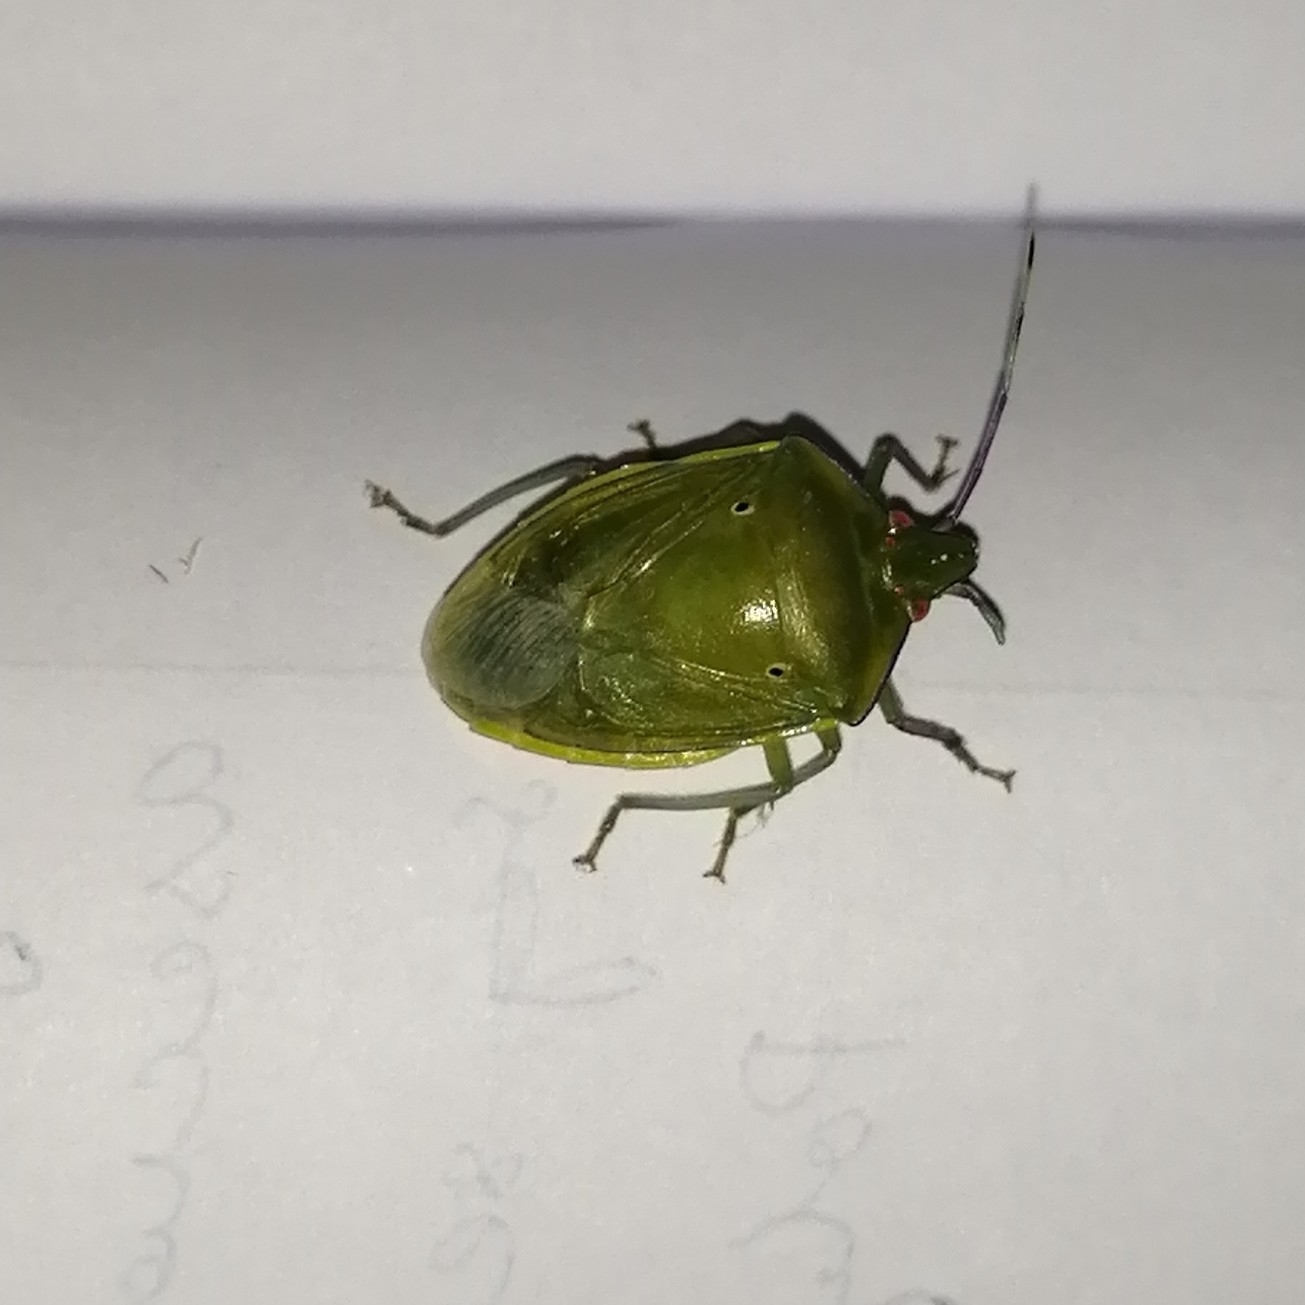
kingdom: Animalia
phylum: Arthropoda
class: Insecta
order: Hemiptera
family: Pentatomidae
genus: Bathycoelia
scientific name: Bathycoelia indica
